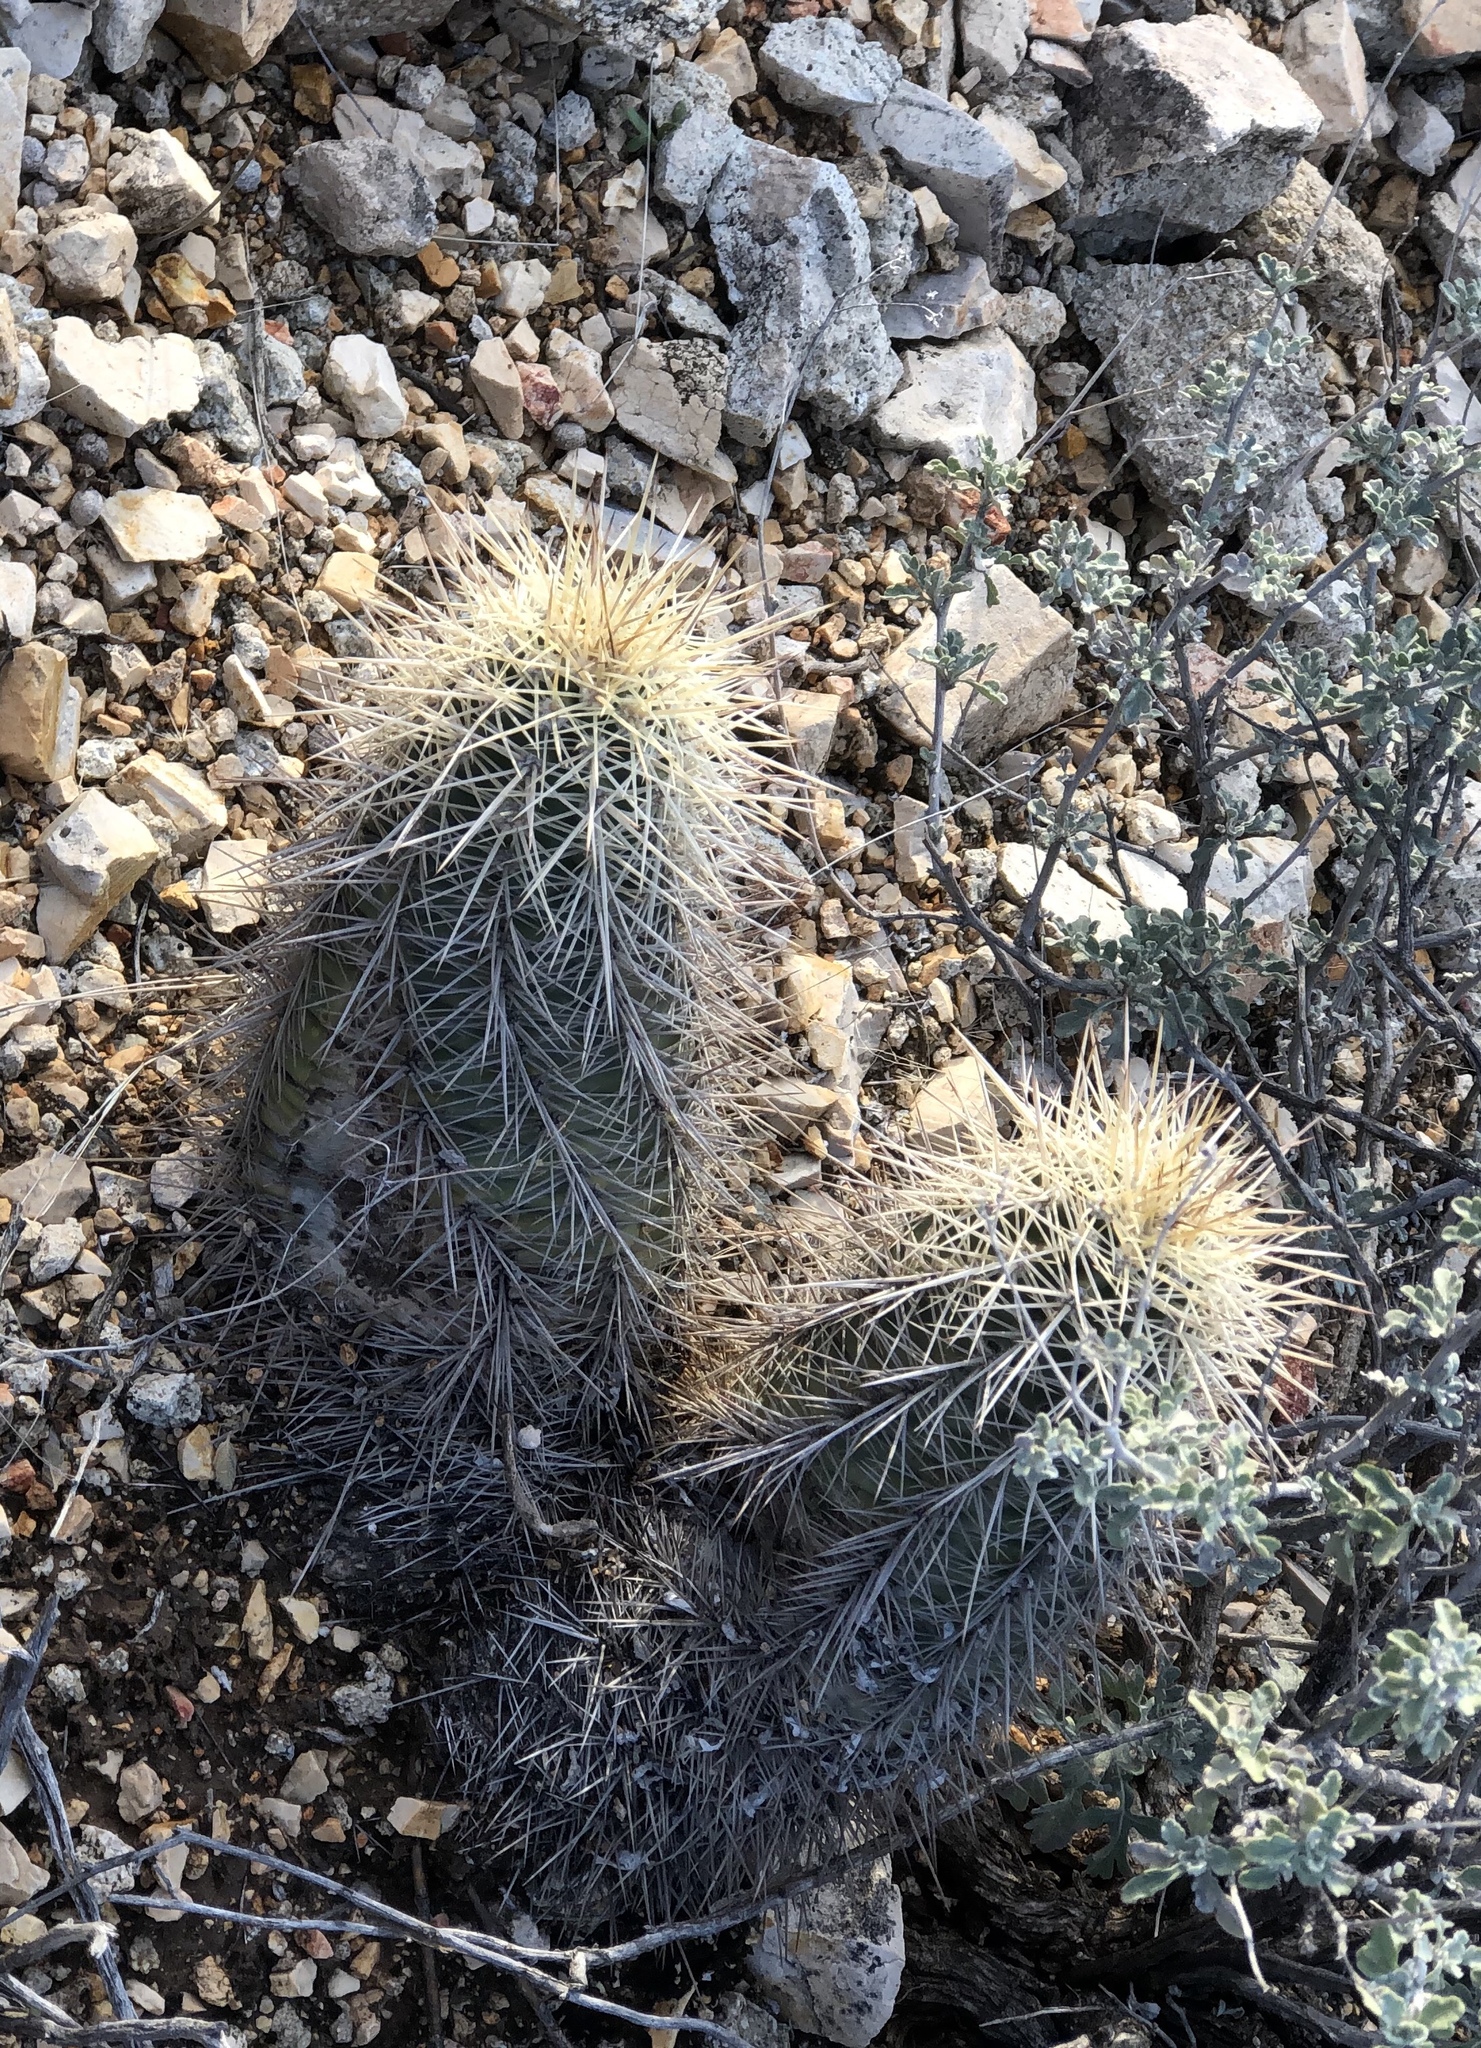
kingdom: Plantae
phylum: Tracheophyta
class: Magnoliopsida
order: Caryophyllales
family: Cactaceae
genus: Echinocereus
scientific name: Echinocereus coccineus
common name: Scarlet hedgehog cactus
